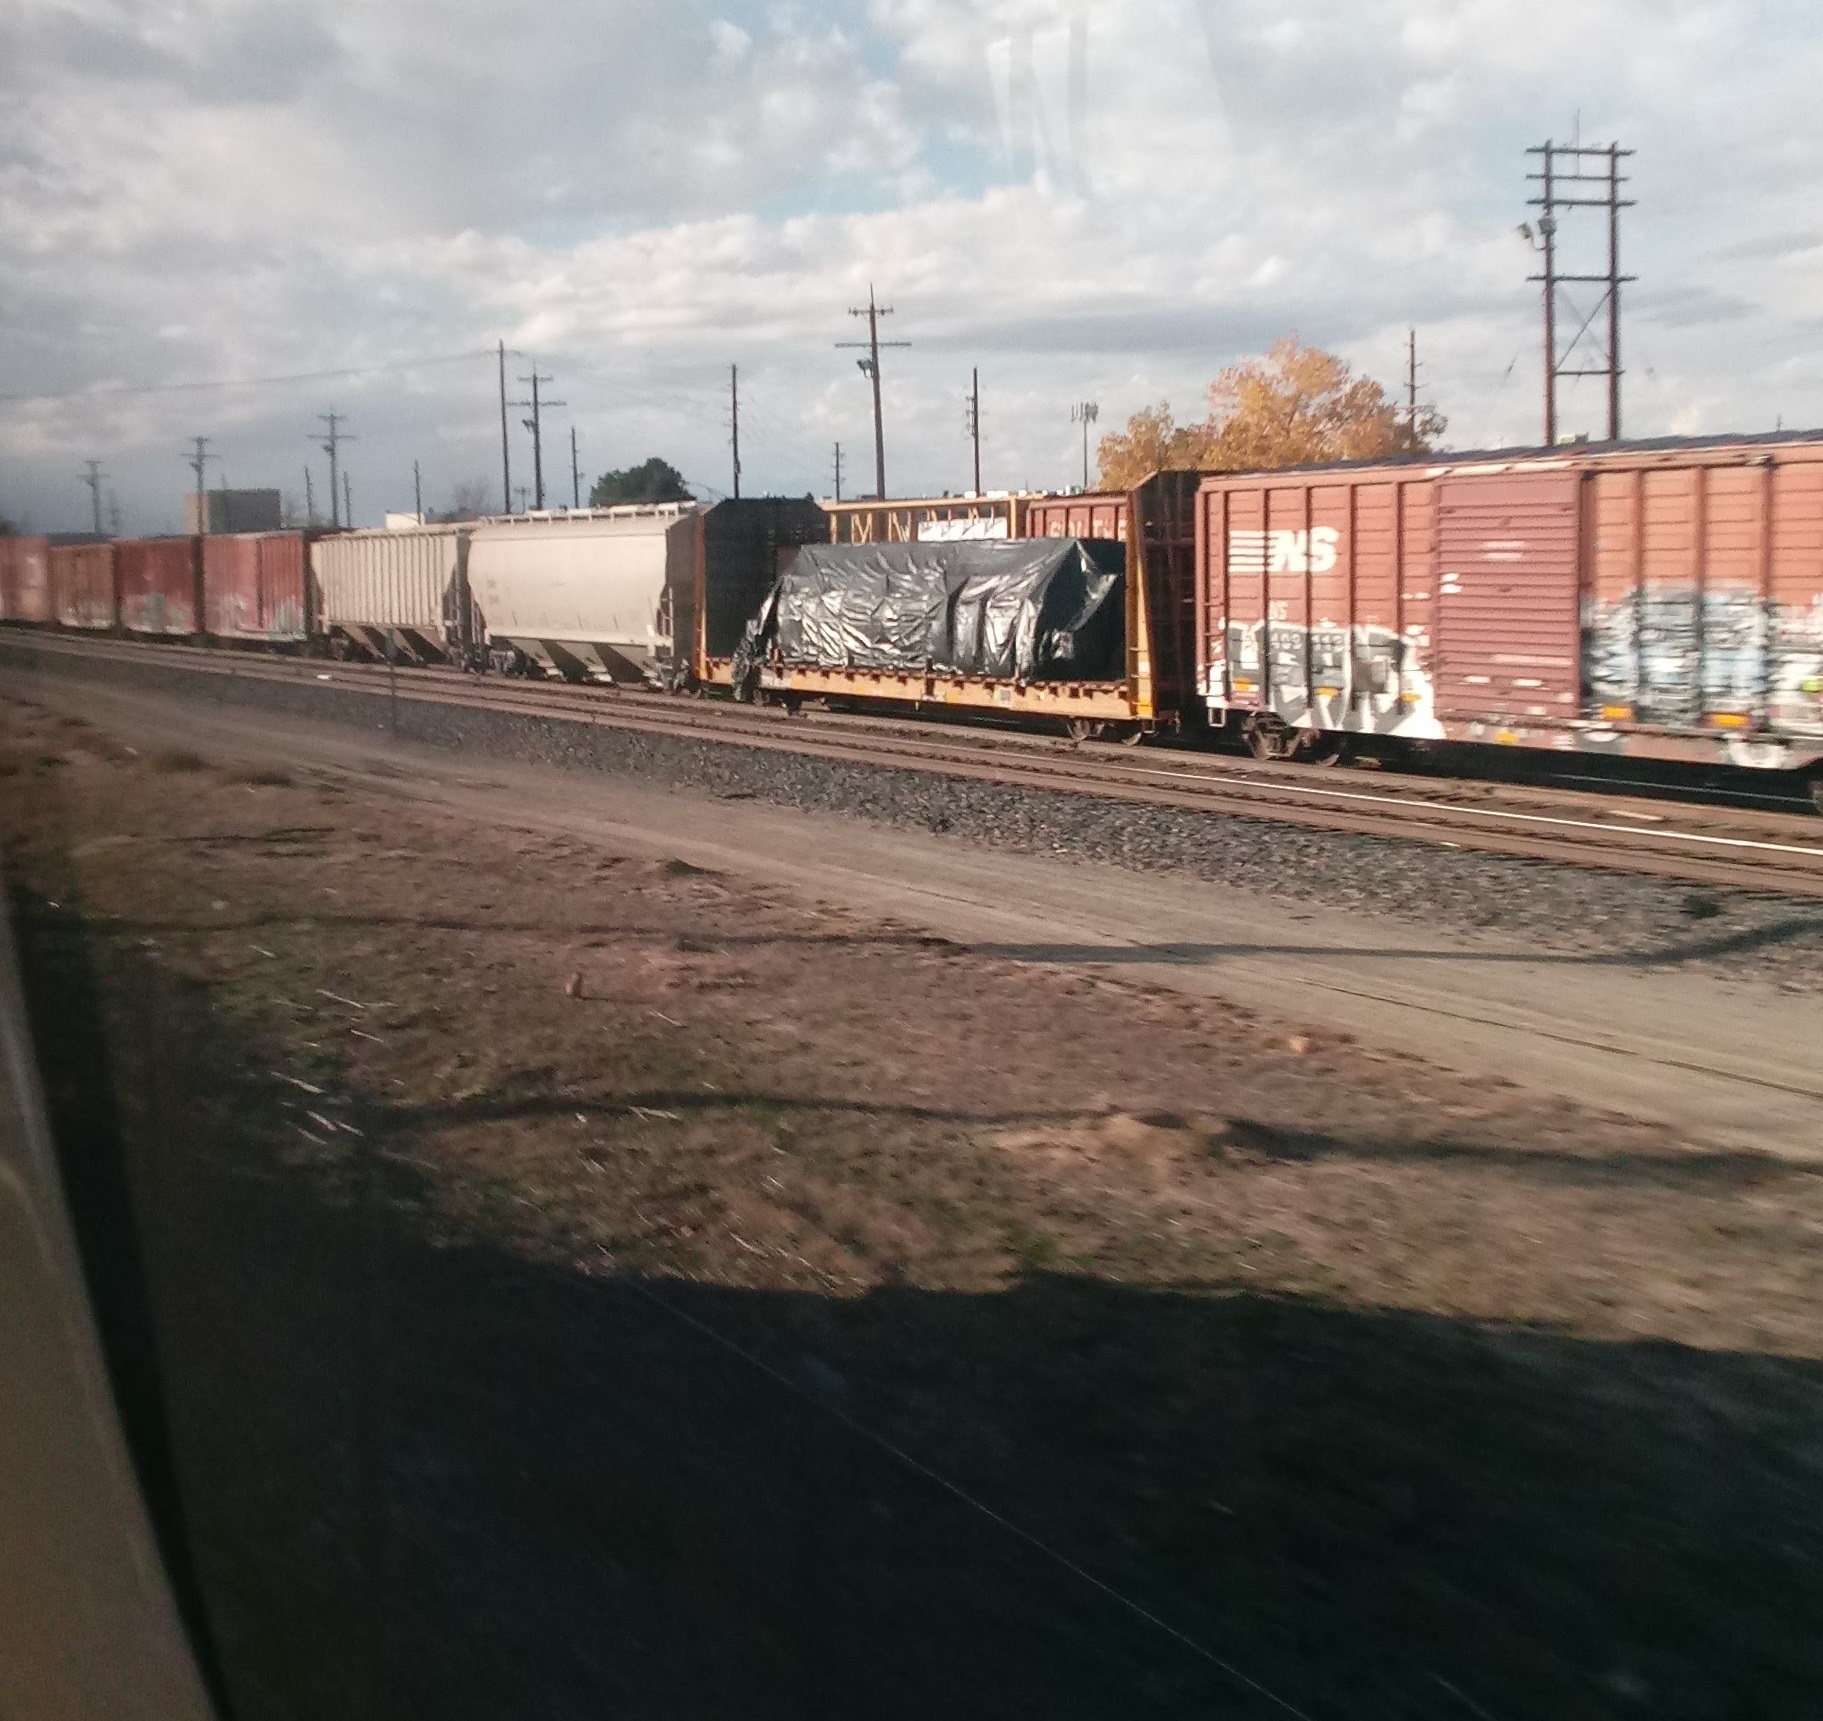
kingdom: Animalia
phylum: Chordata
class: Mammalia
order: Rodentia
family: Sciuridae
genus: Cynomys
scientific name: Cynomys ludovicianus
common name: Black-tailed prairie dog
